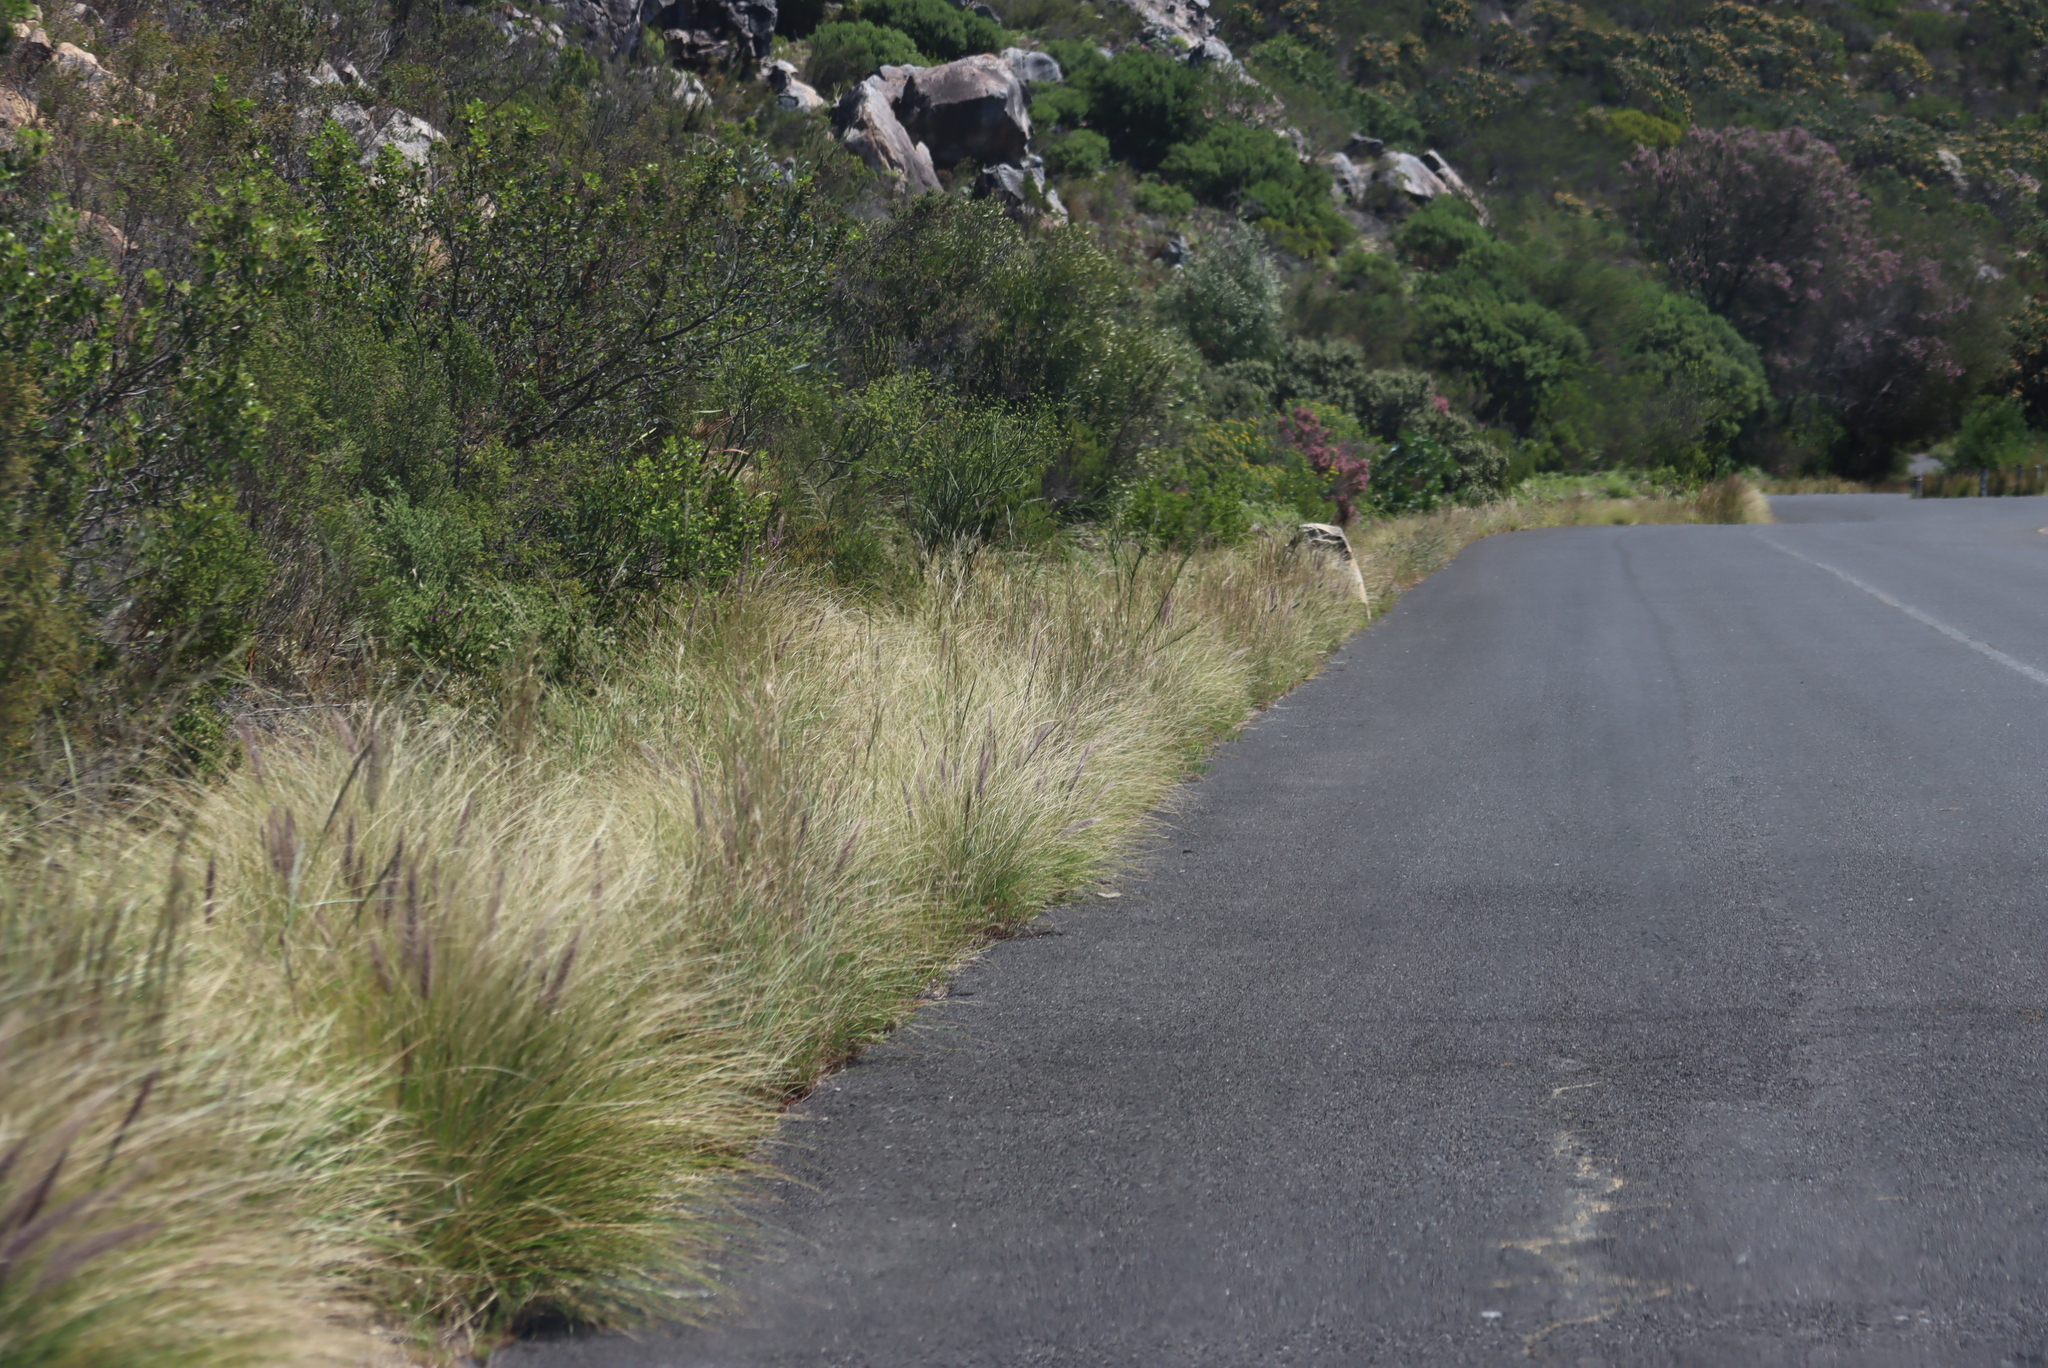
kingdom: Plantae
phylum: Tracheophyta
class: Liliopsida
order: Poales
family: Poaceae
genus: Cenchrus
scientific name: Cenchrus setaceus
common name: Crimson fountaingrass
